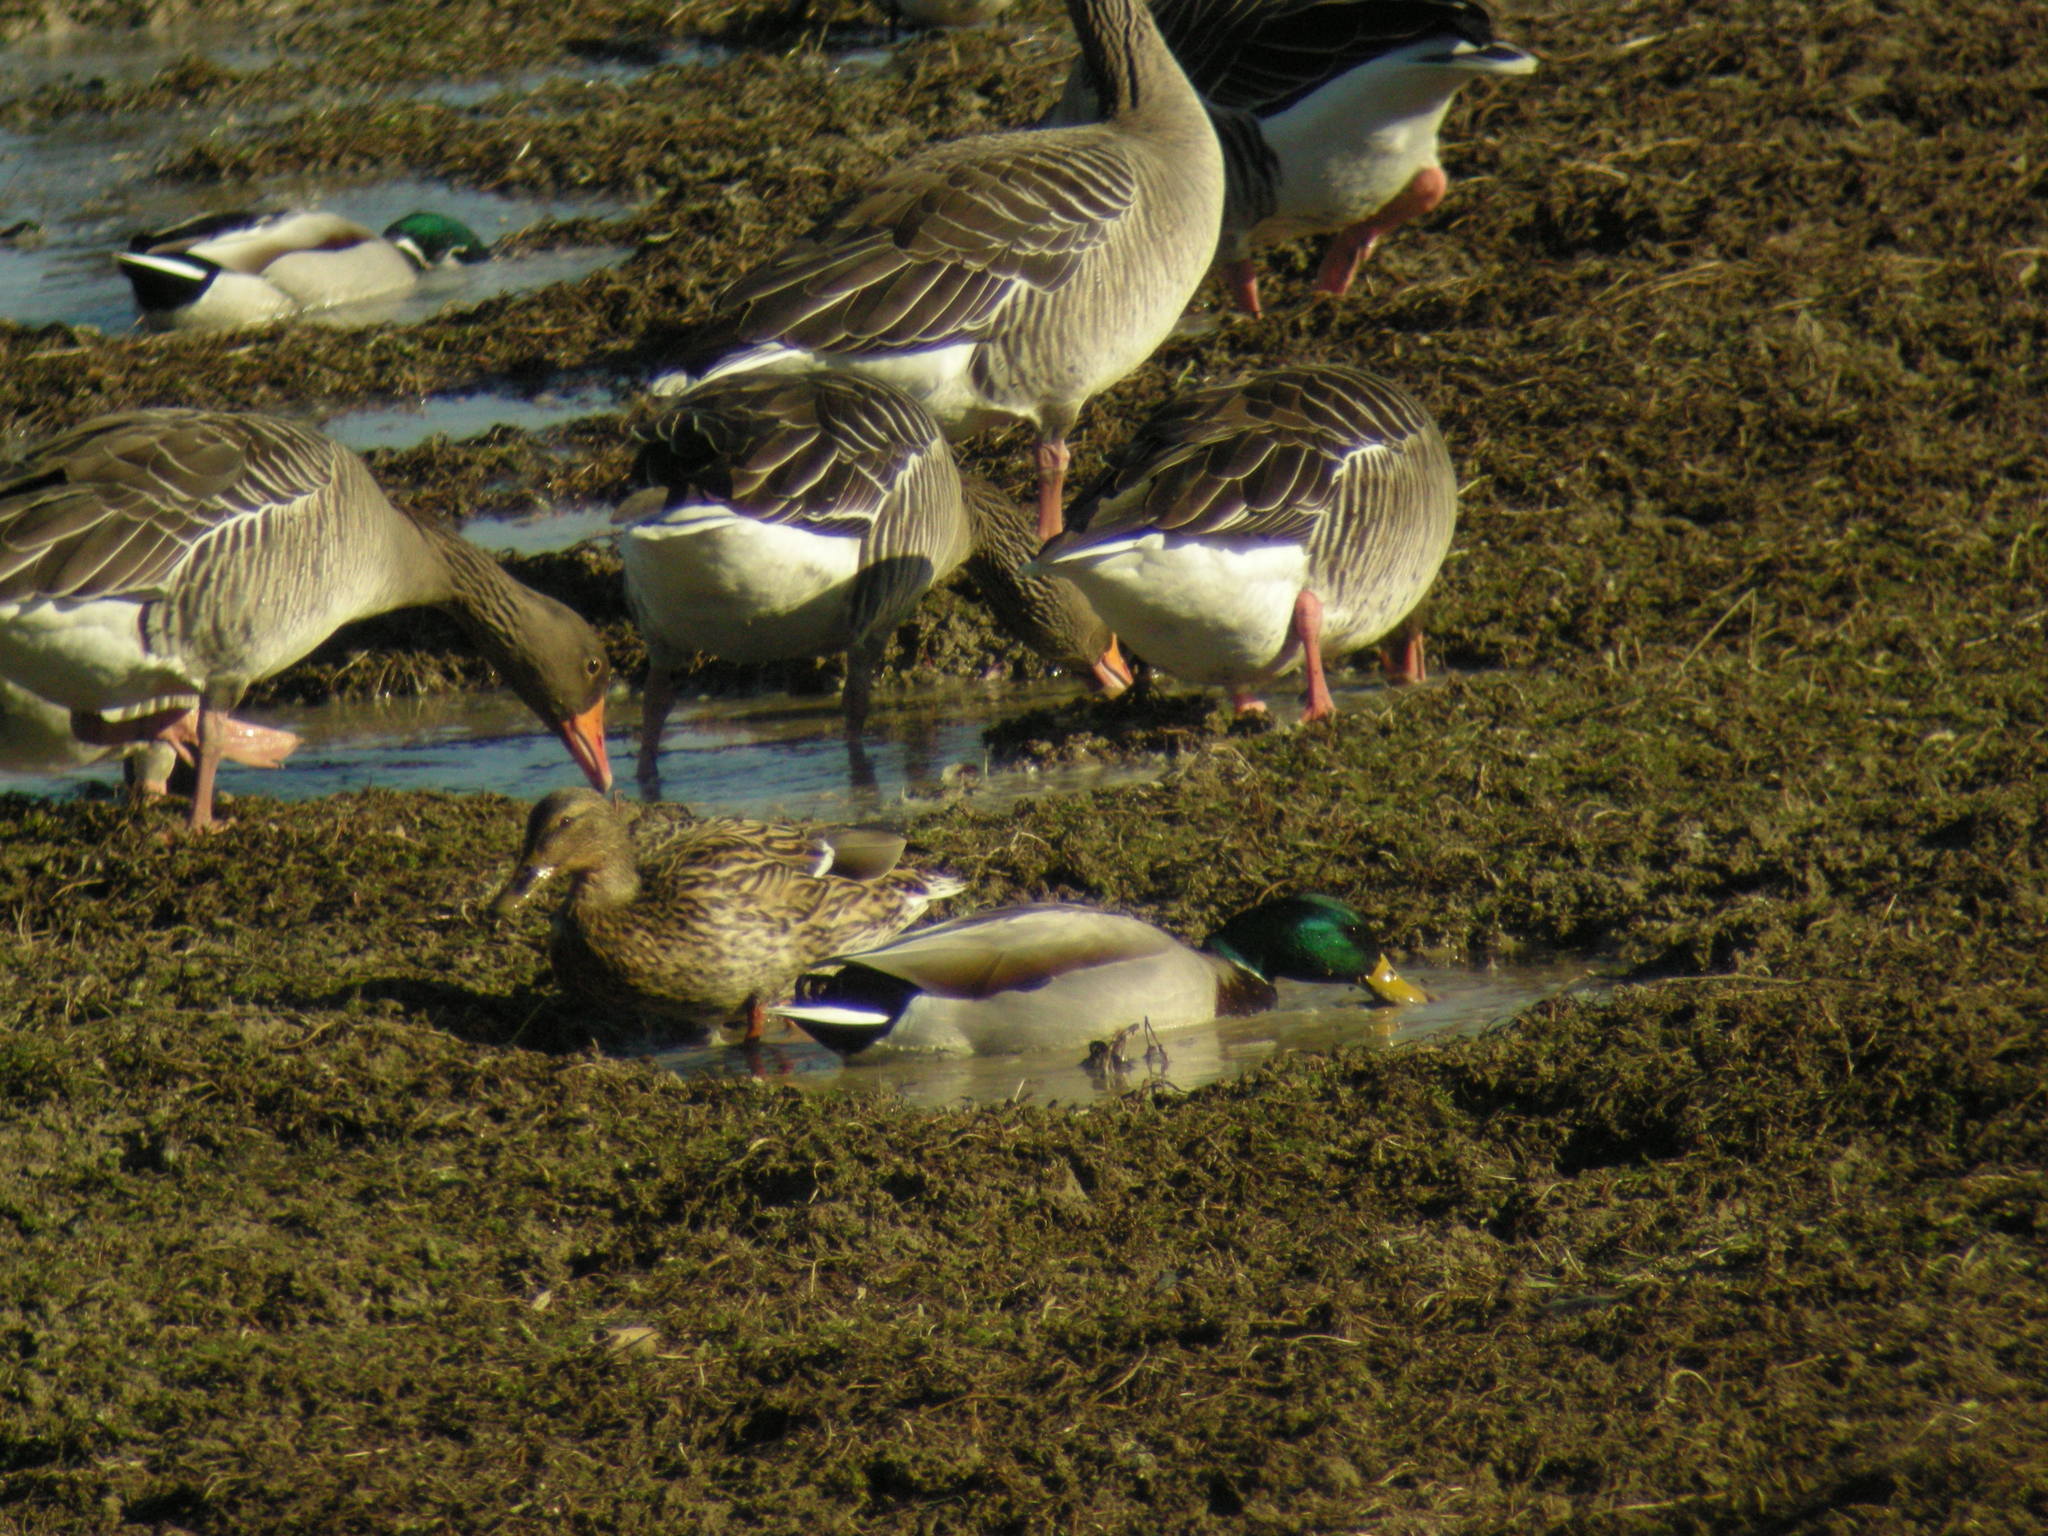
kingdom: Animalia
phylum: Chordata
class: Aves
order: Anseriformes
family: Anatidae
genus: Anas
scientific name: Anas platyrhynchos
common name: Mallard
